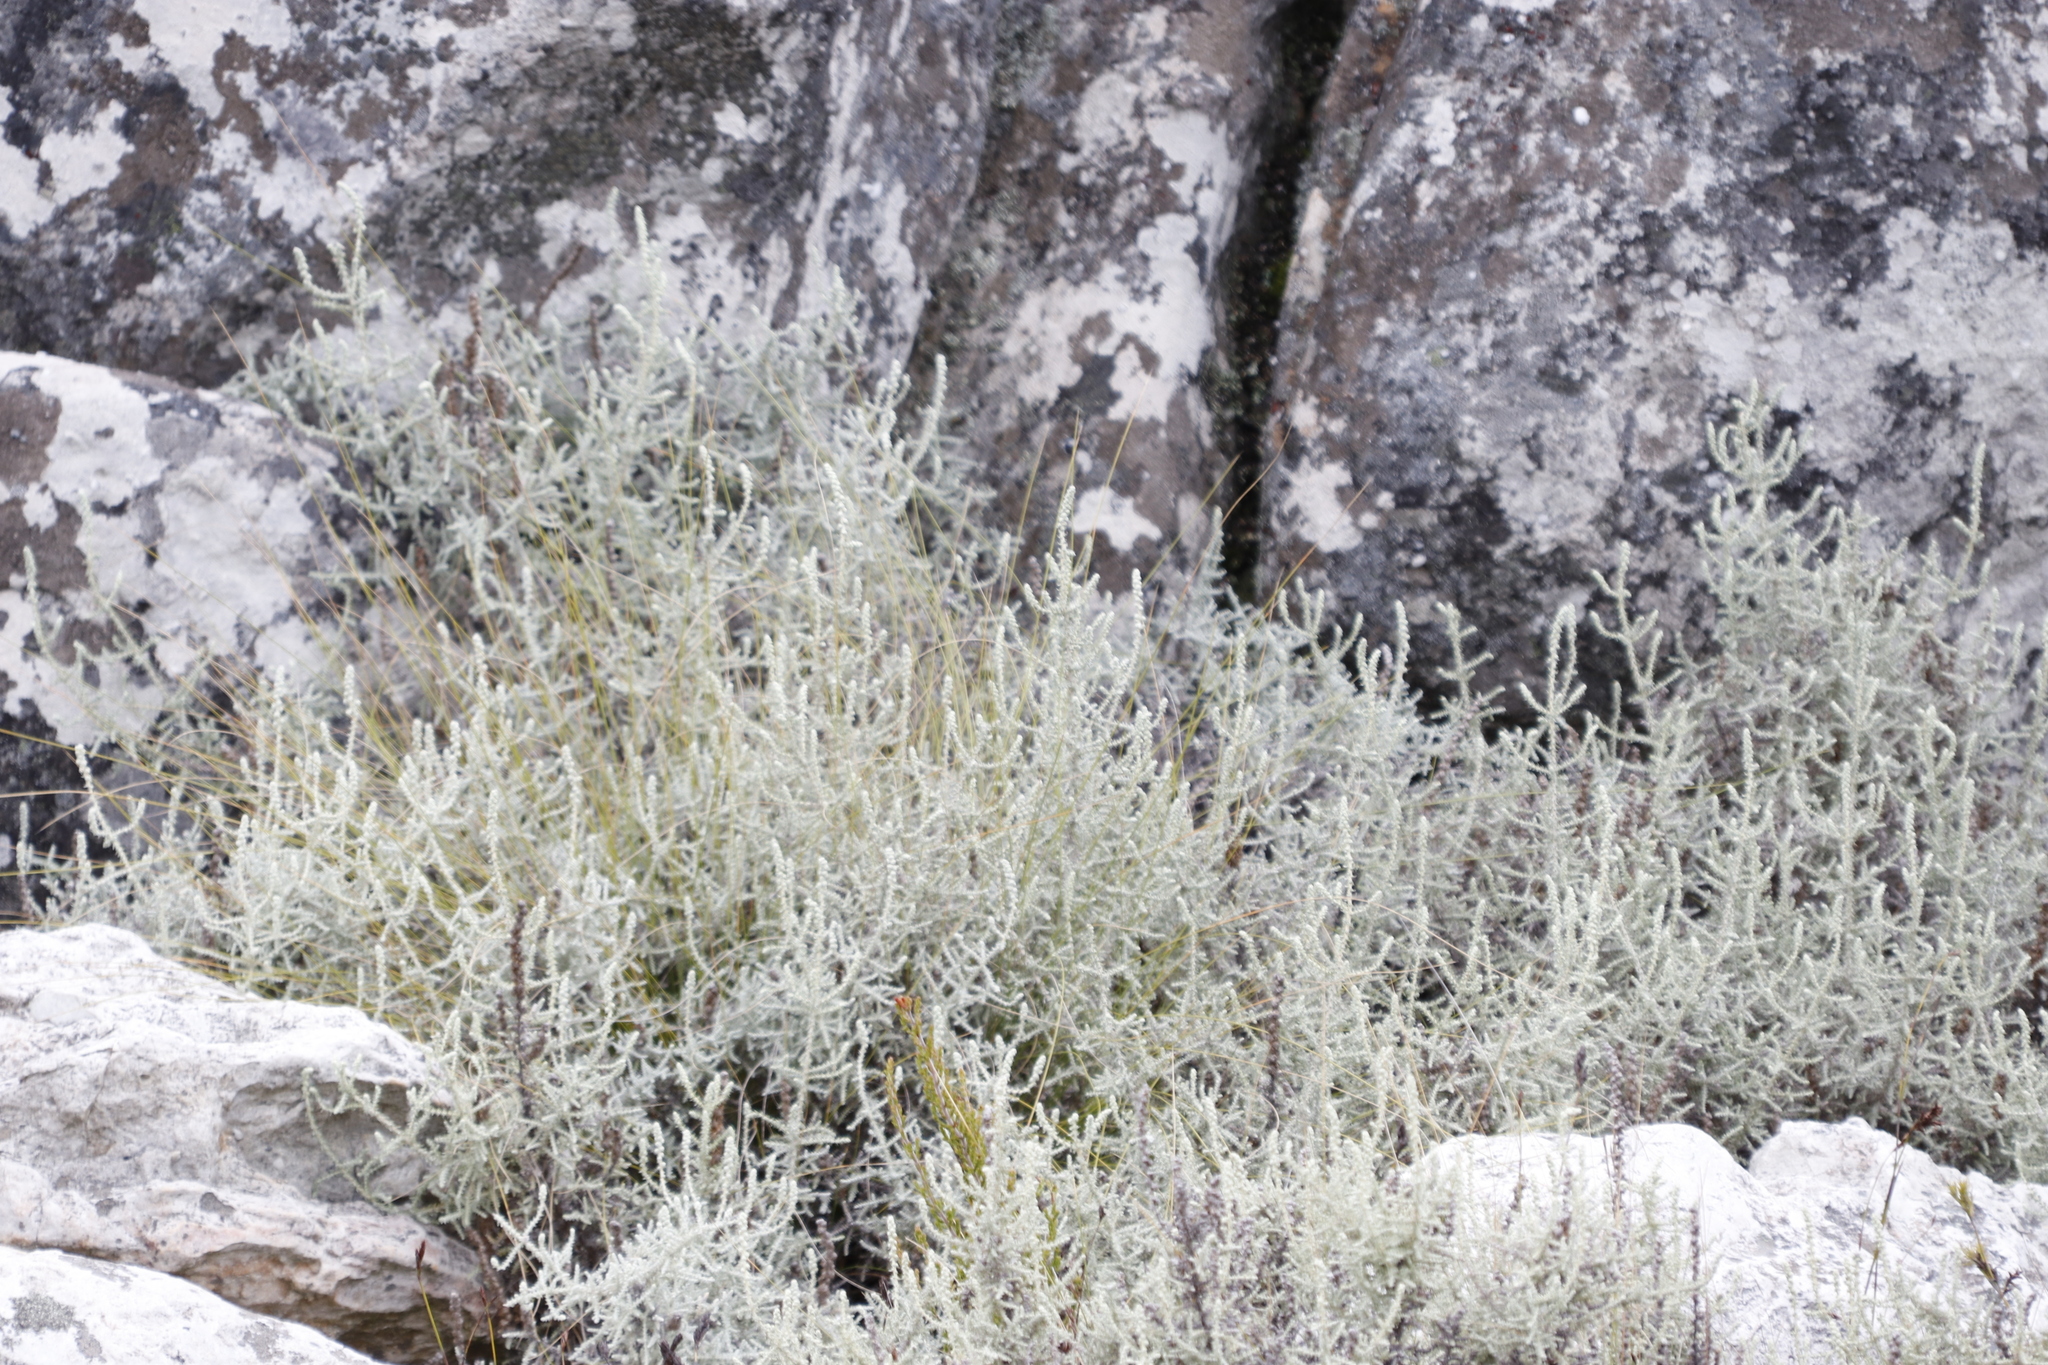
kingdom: Plantae
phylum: Tracheophyta
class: Magnoliopsida
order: Asterales
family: Asteraceae
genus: Seriphium
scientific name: Seriphium plumosum
